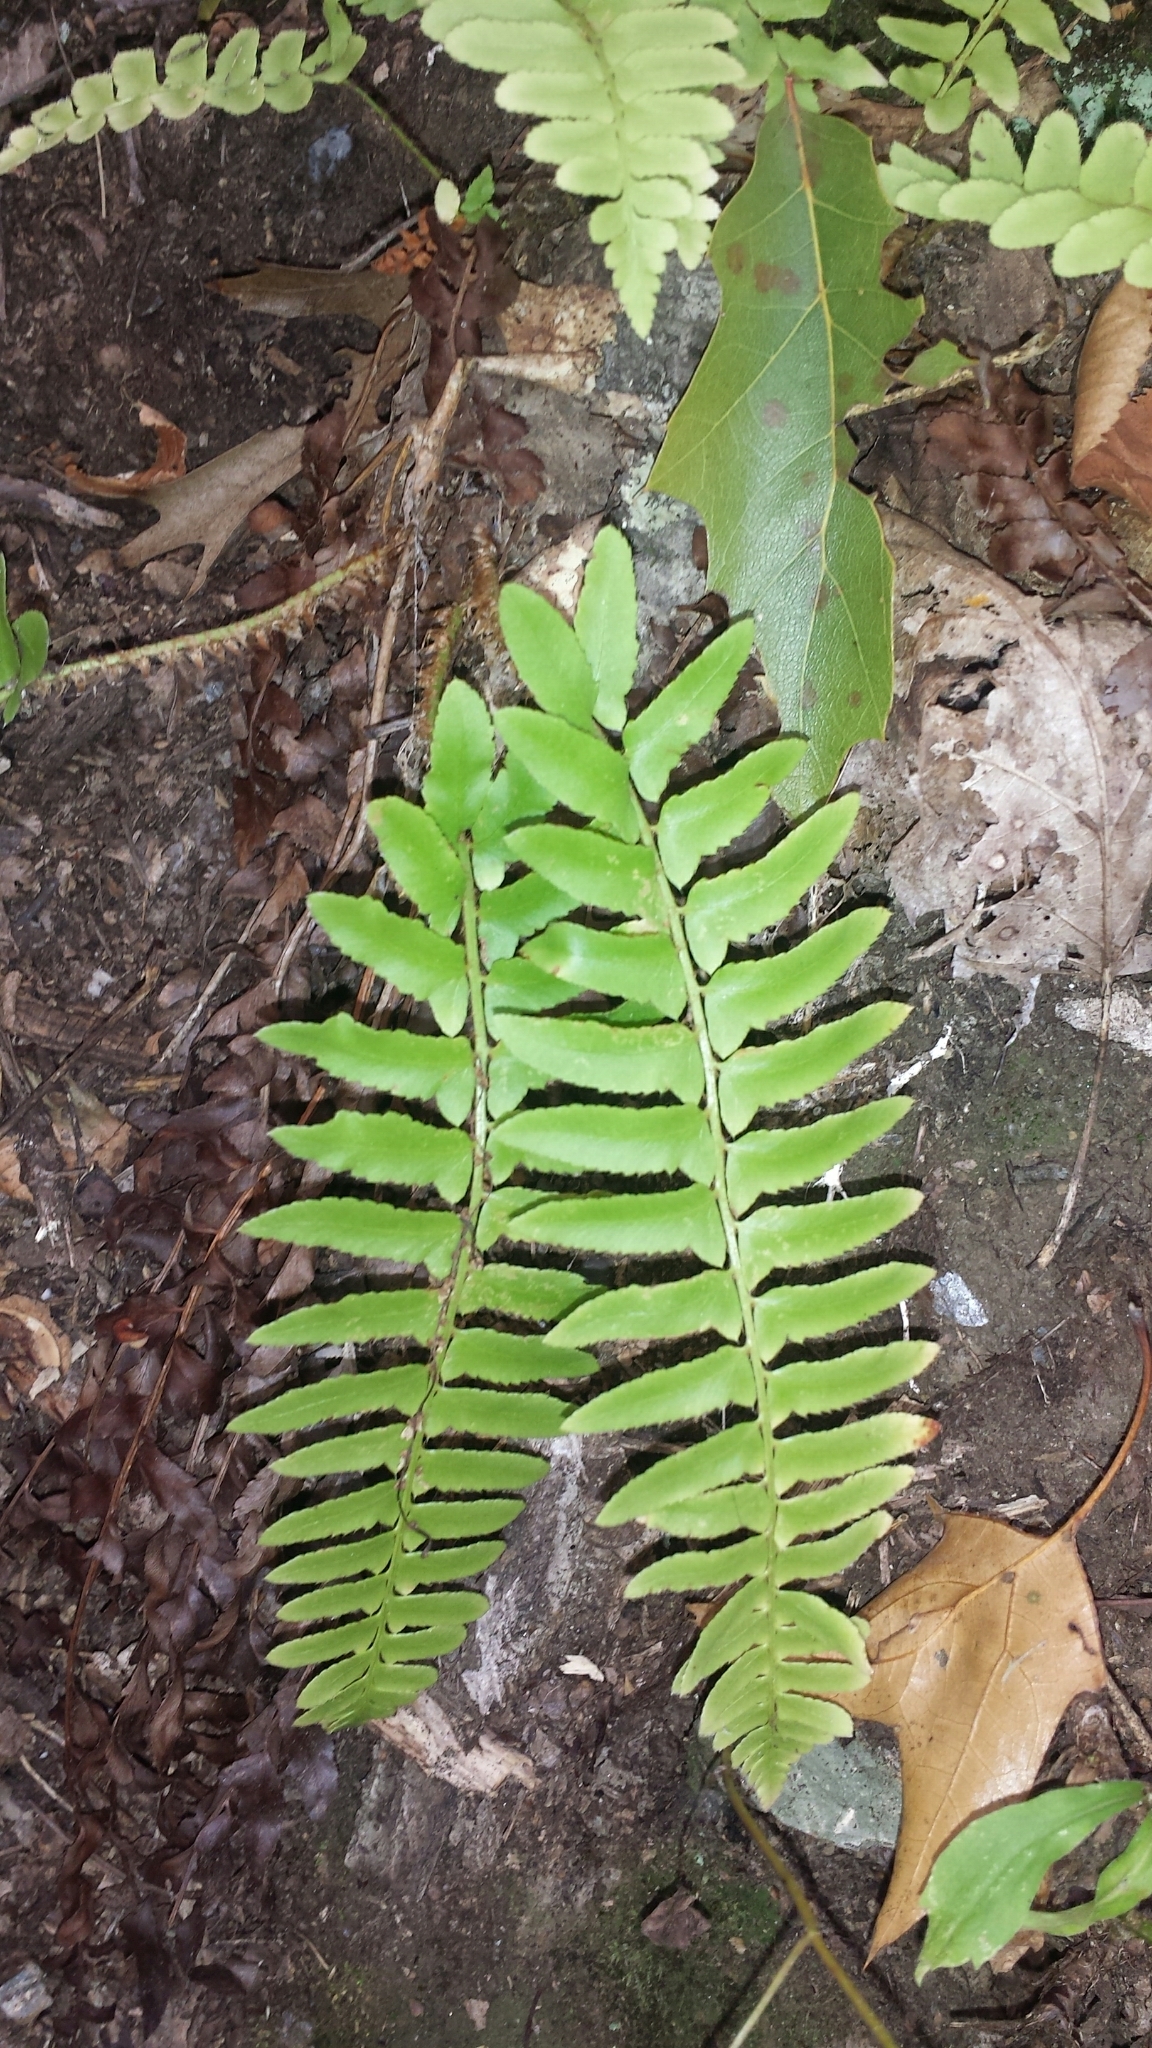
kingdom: Plantae
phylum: Tracheophyta
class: Polypodiopsida
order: Polypodiales
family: Dryopteridaceae
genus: Polystichum
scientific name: Polystichum acrostichoides
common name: Christmas fern
